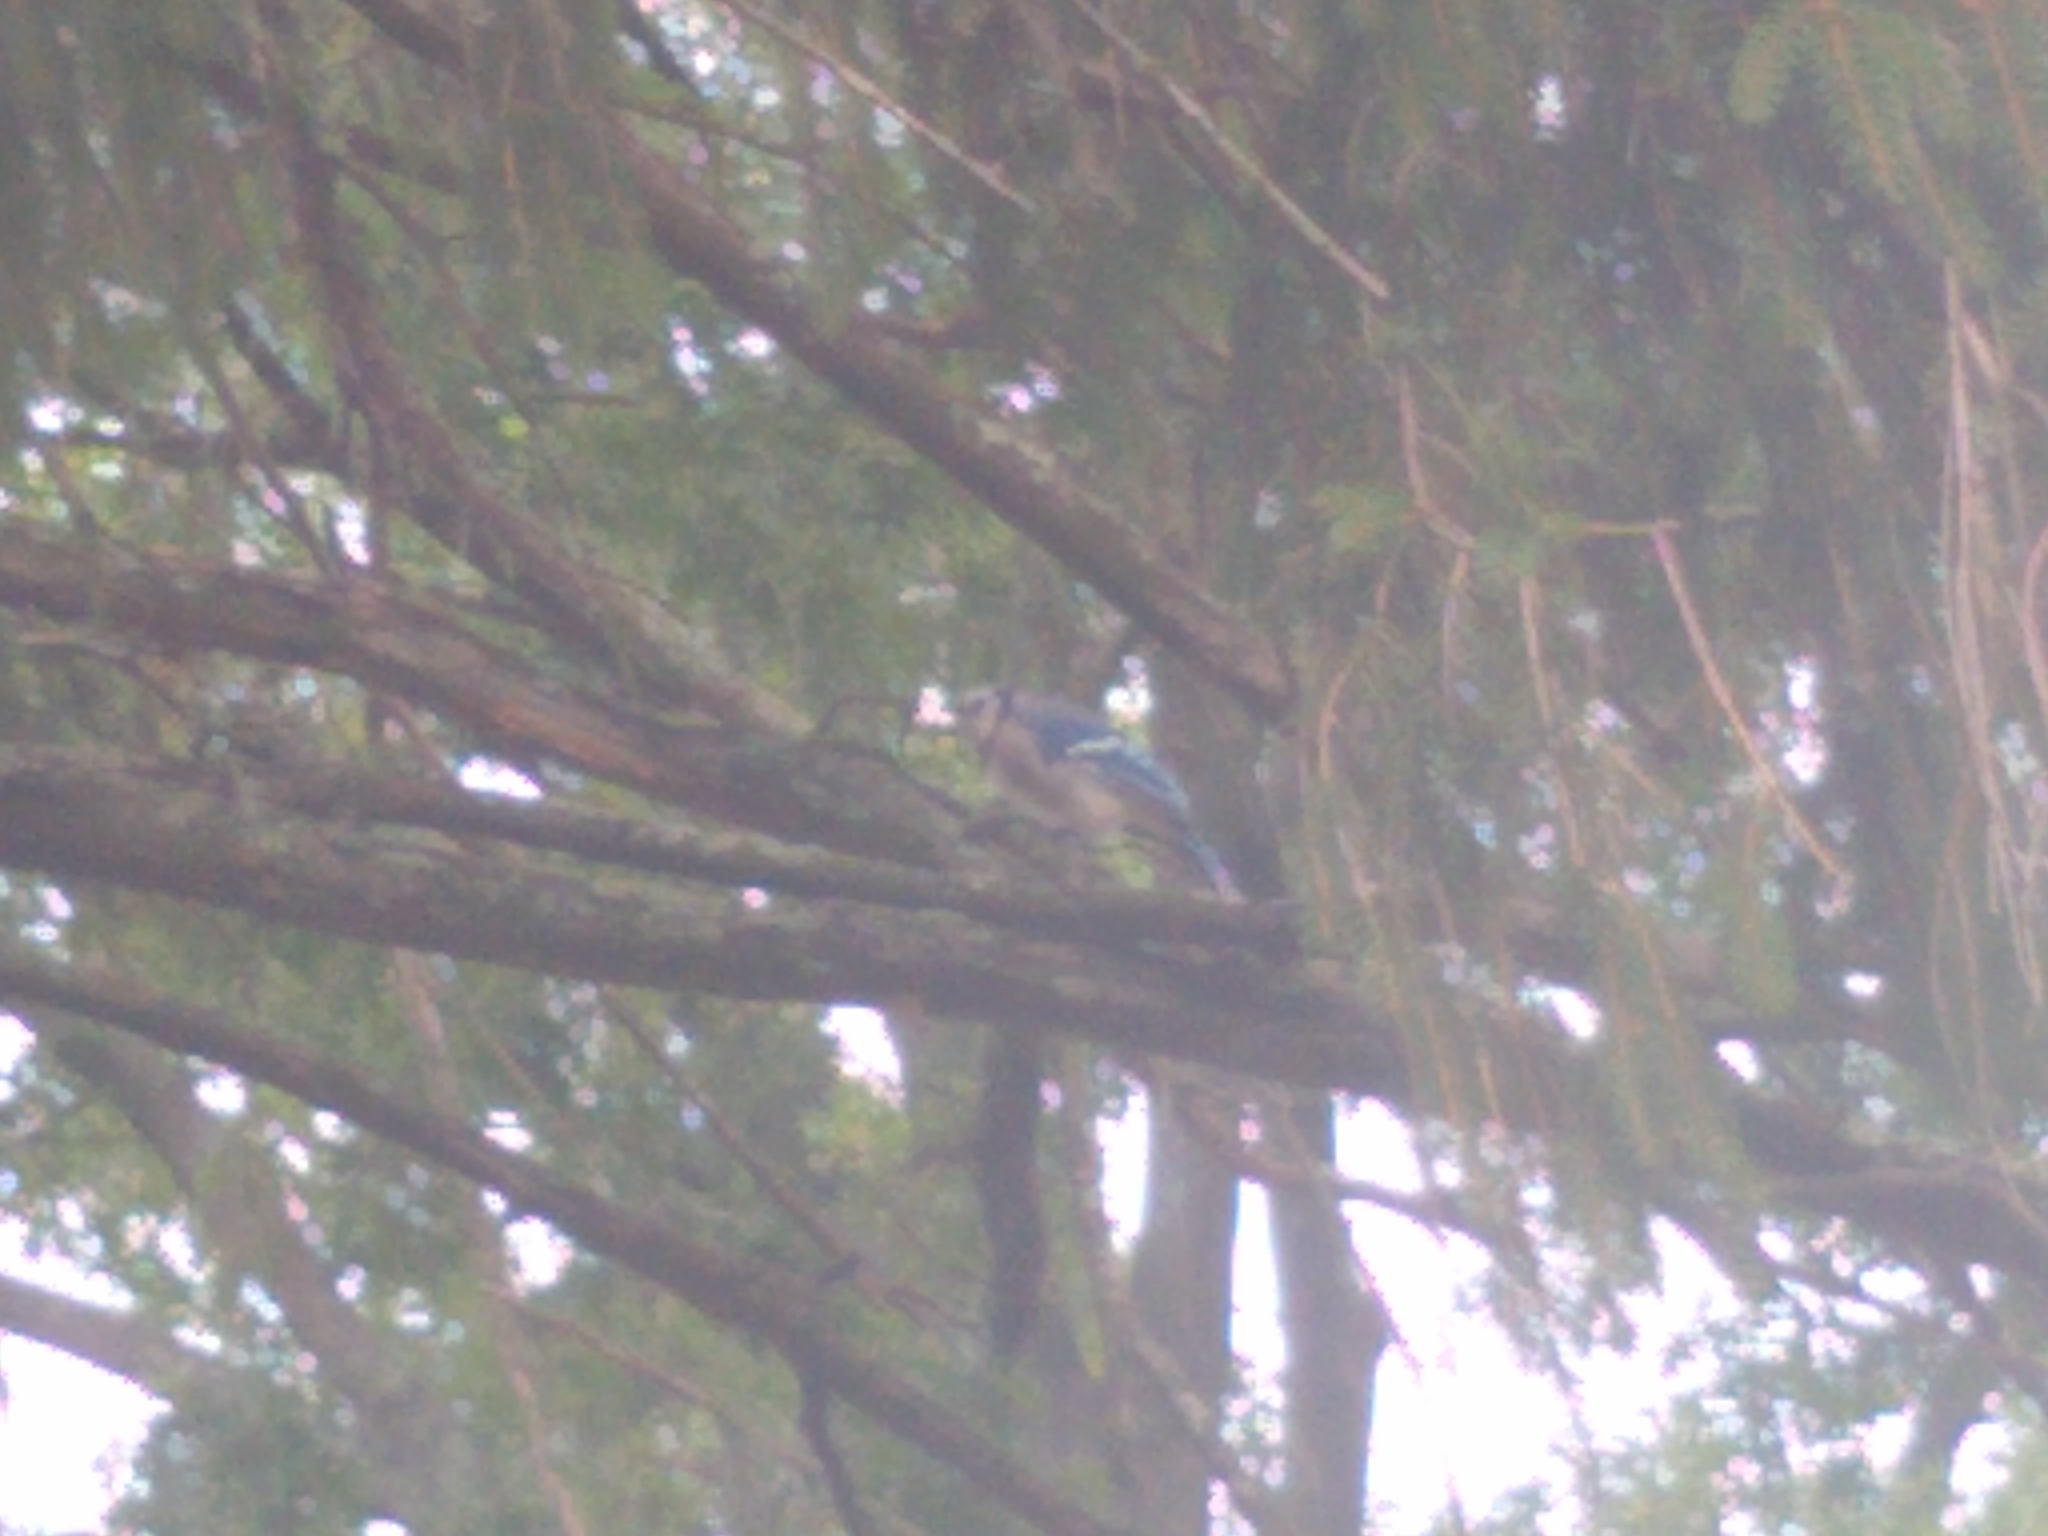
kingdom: Animalia
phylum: Chordata
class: Aves
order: Passeriformes
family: Corvidae
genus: Cyanocitta
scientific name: Cyanocitta cristata
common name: Blue jay
